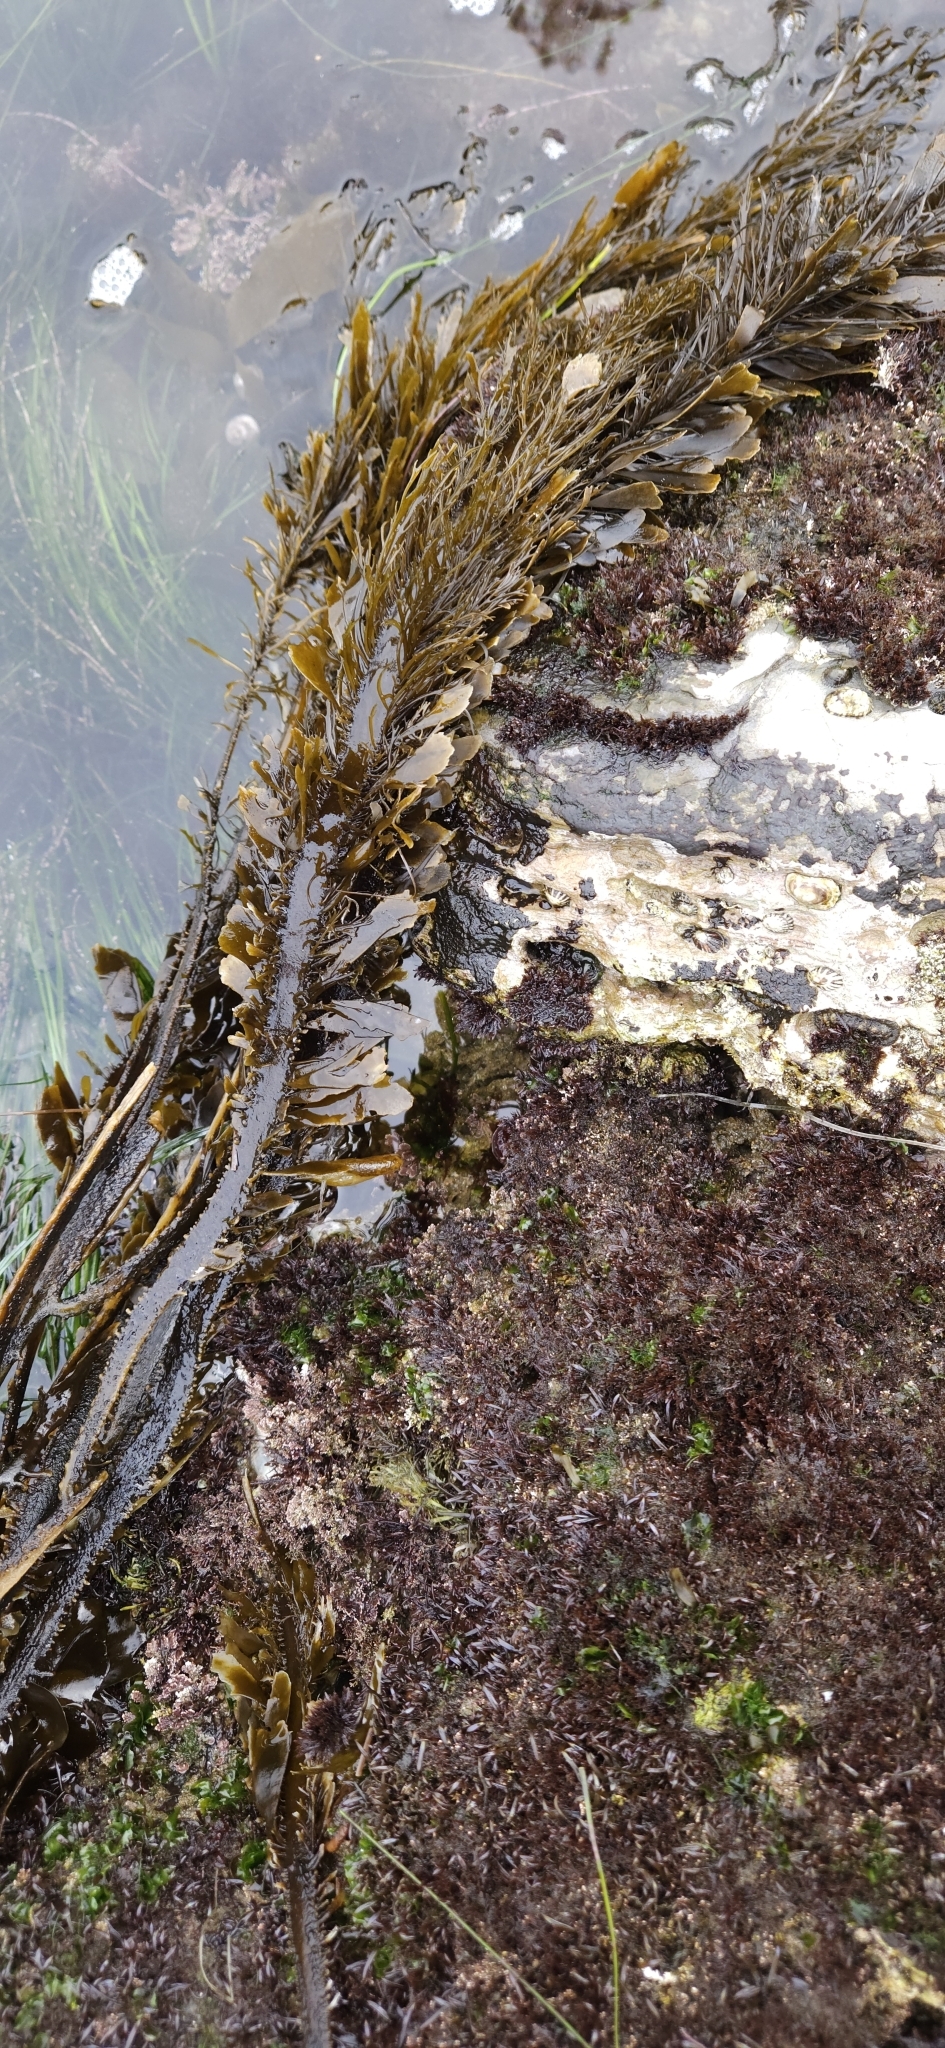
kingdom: Chromista
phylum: Ochrophyta
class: Phaeophyceae
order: Laminariales
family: Lessoniaceae
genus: Egregia
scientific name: Egregia menziesii
